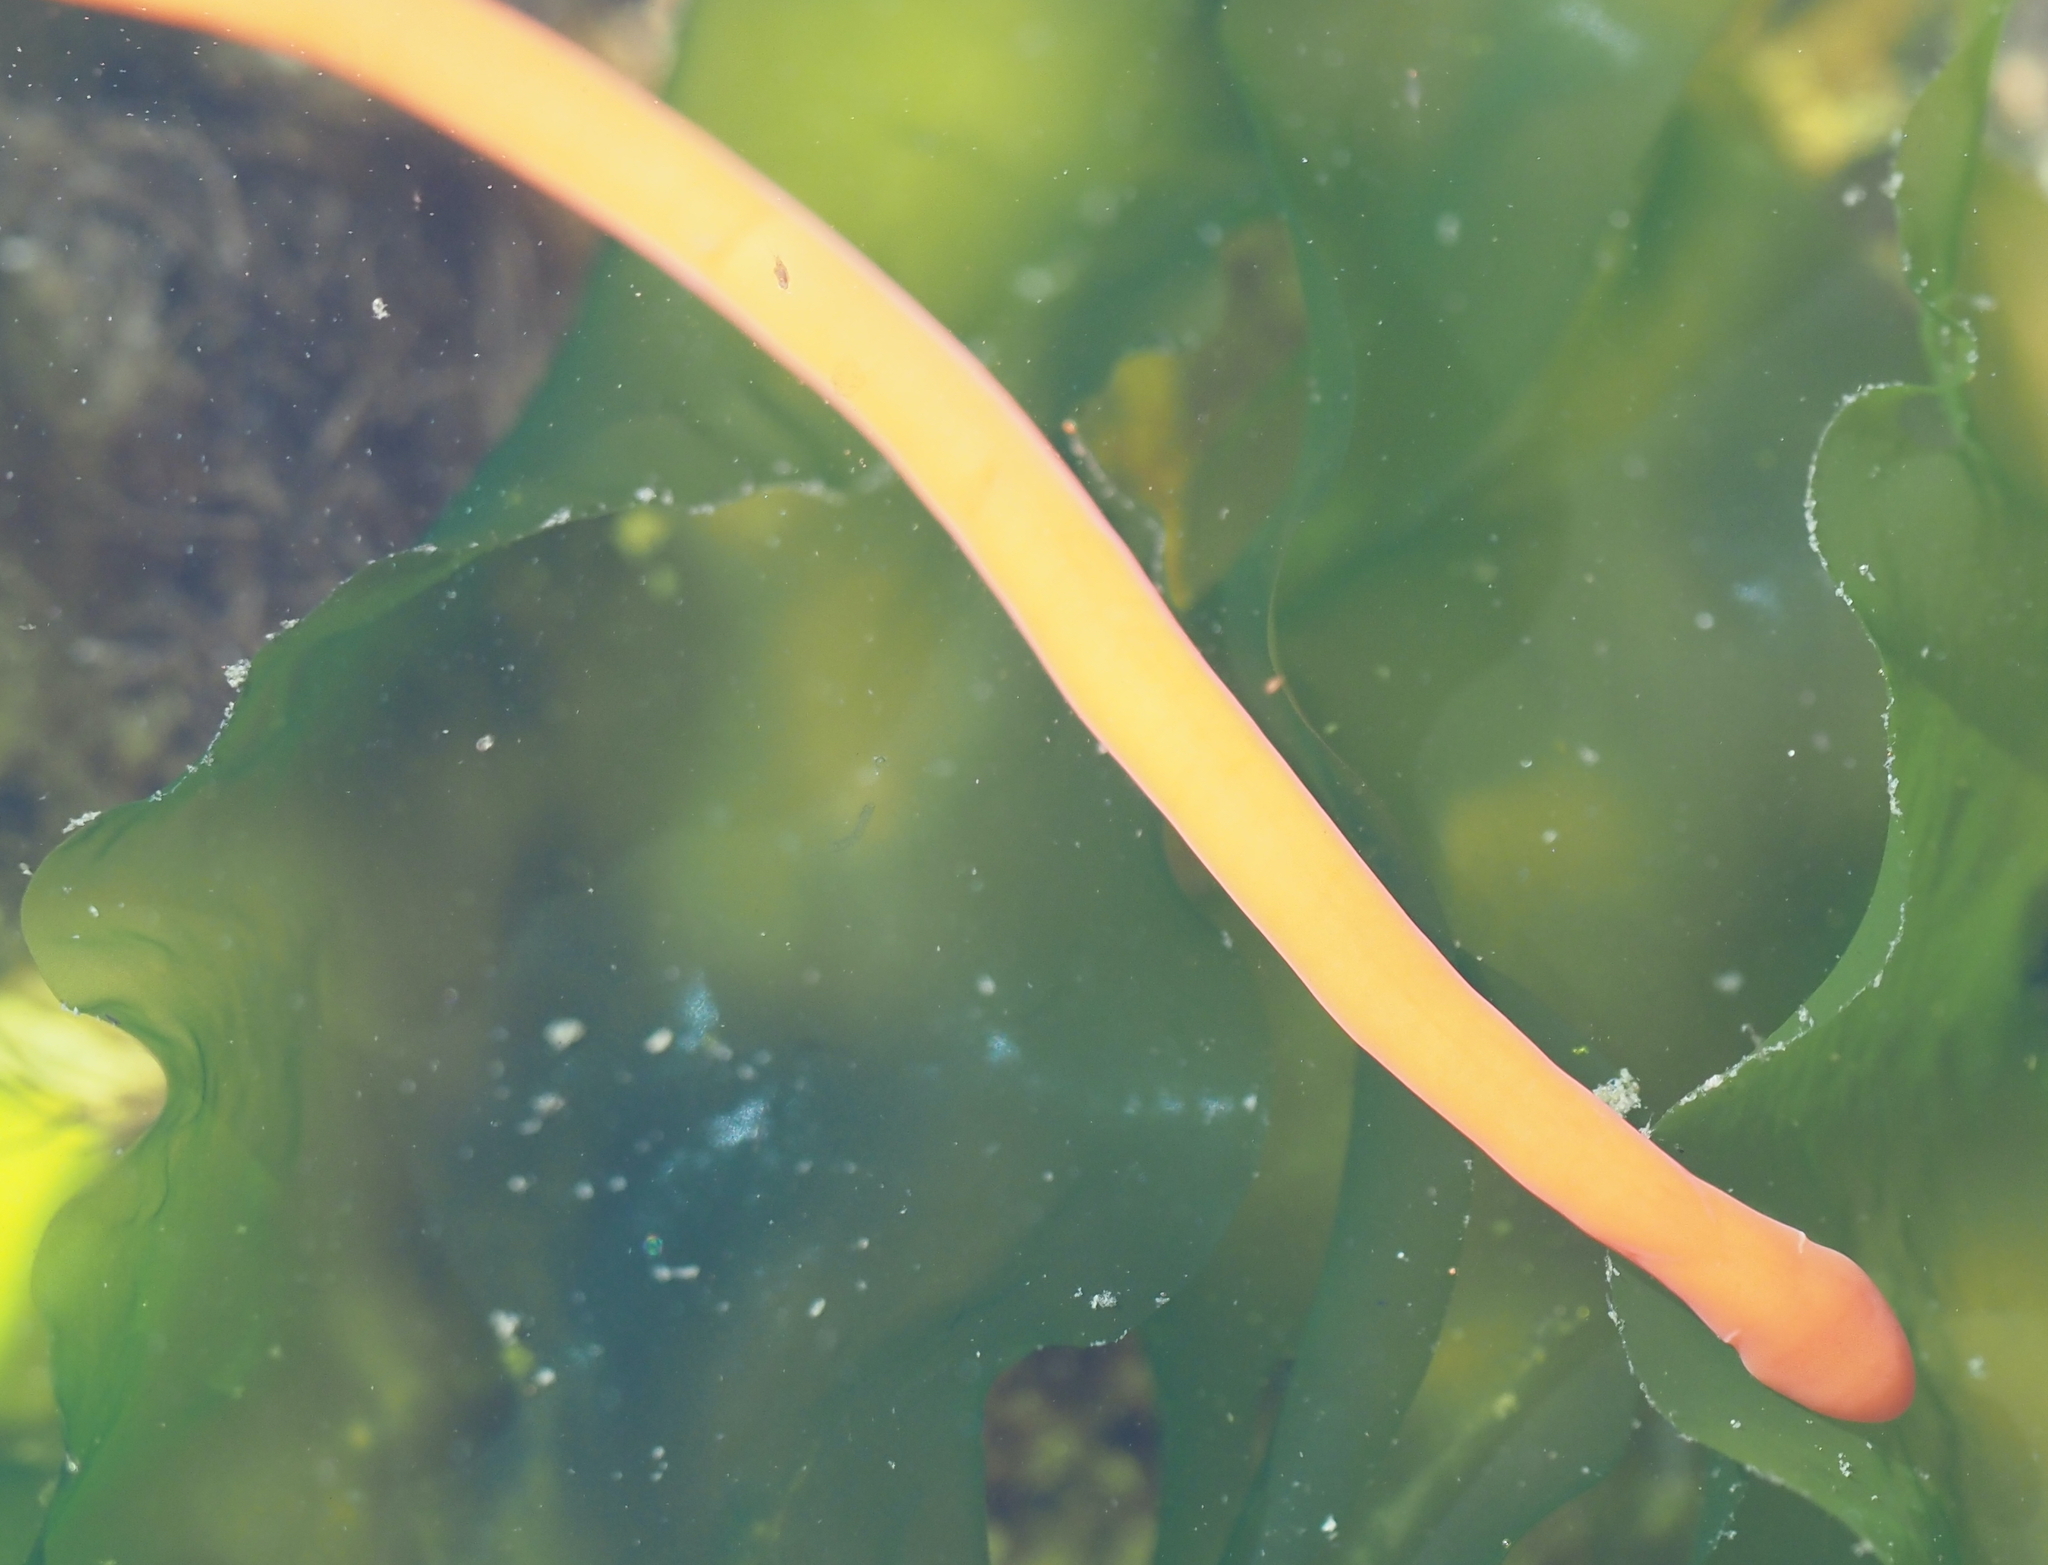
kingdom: Animalia
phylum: Nemertea
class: Palaeonemertea
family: Tubulanidae
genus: Tubulanus
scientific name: Tubulanus polymorphus
